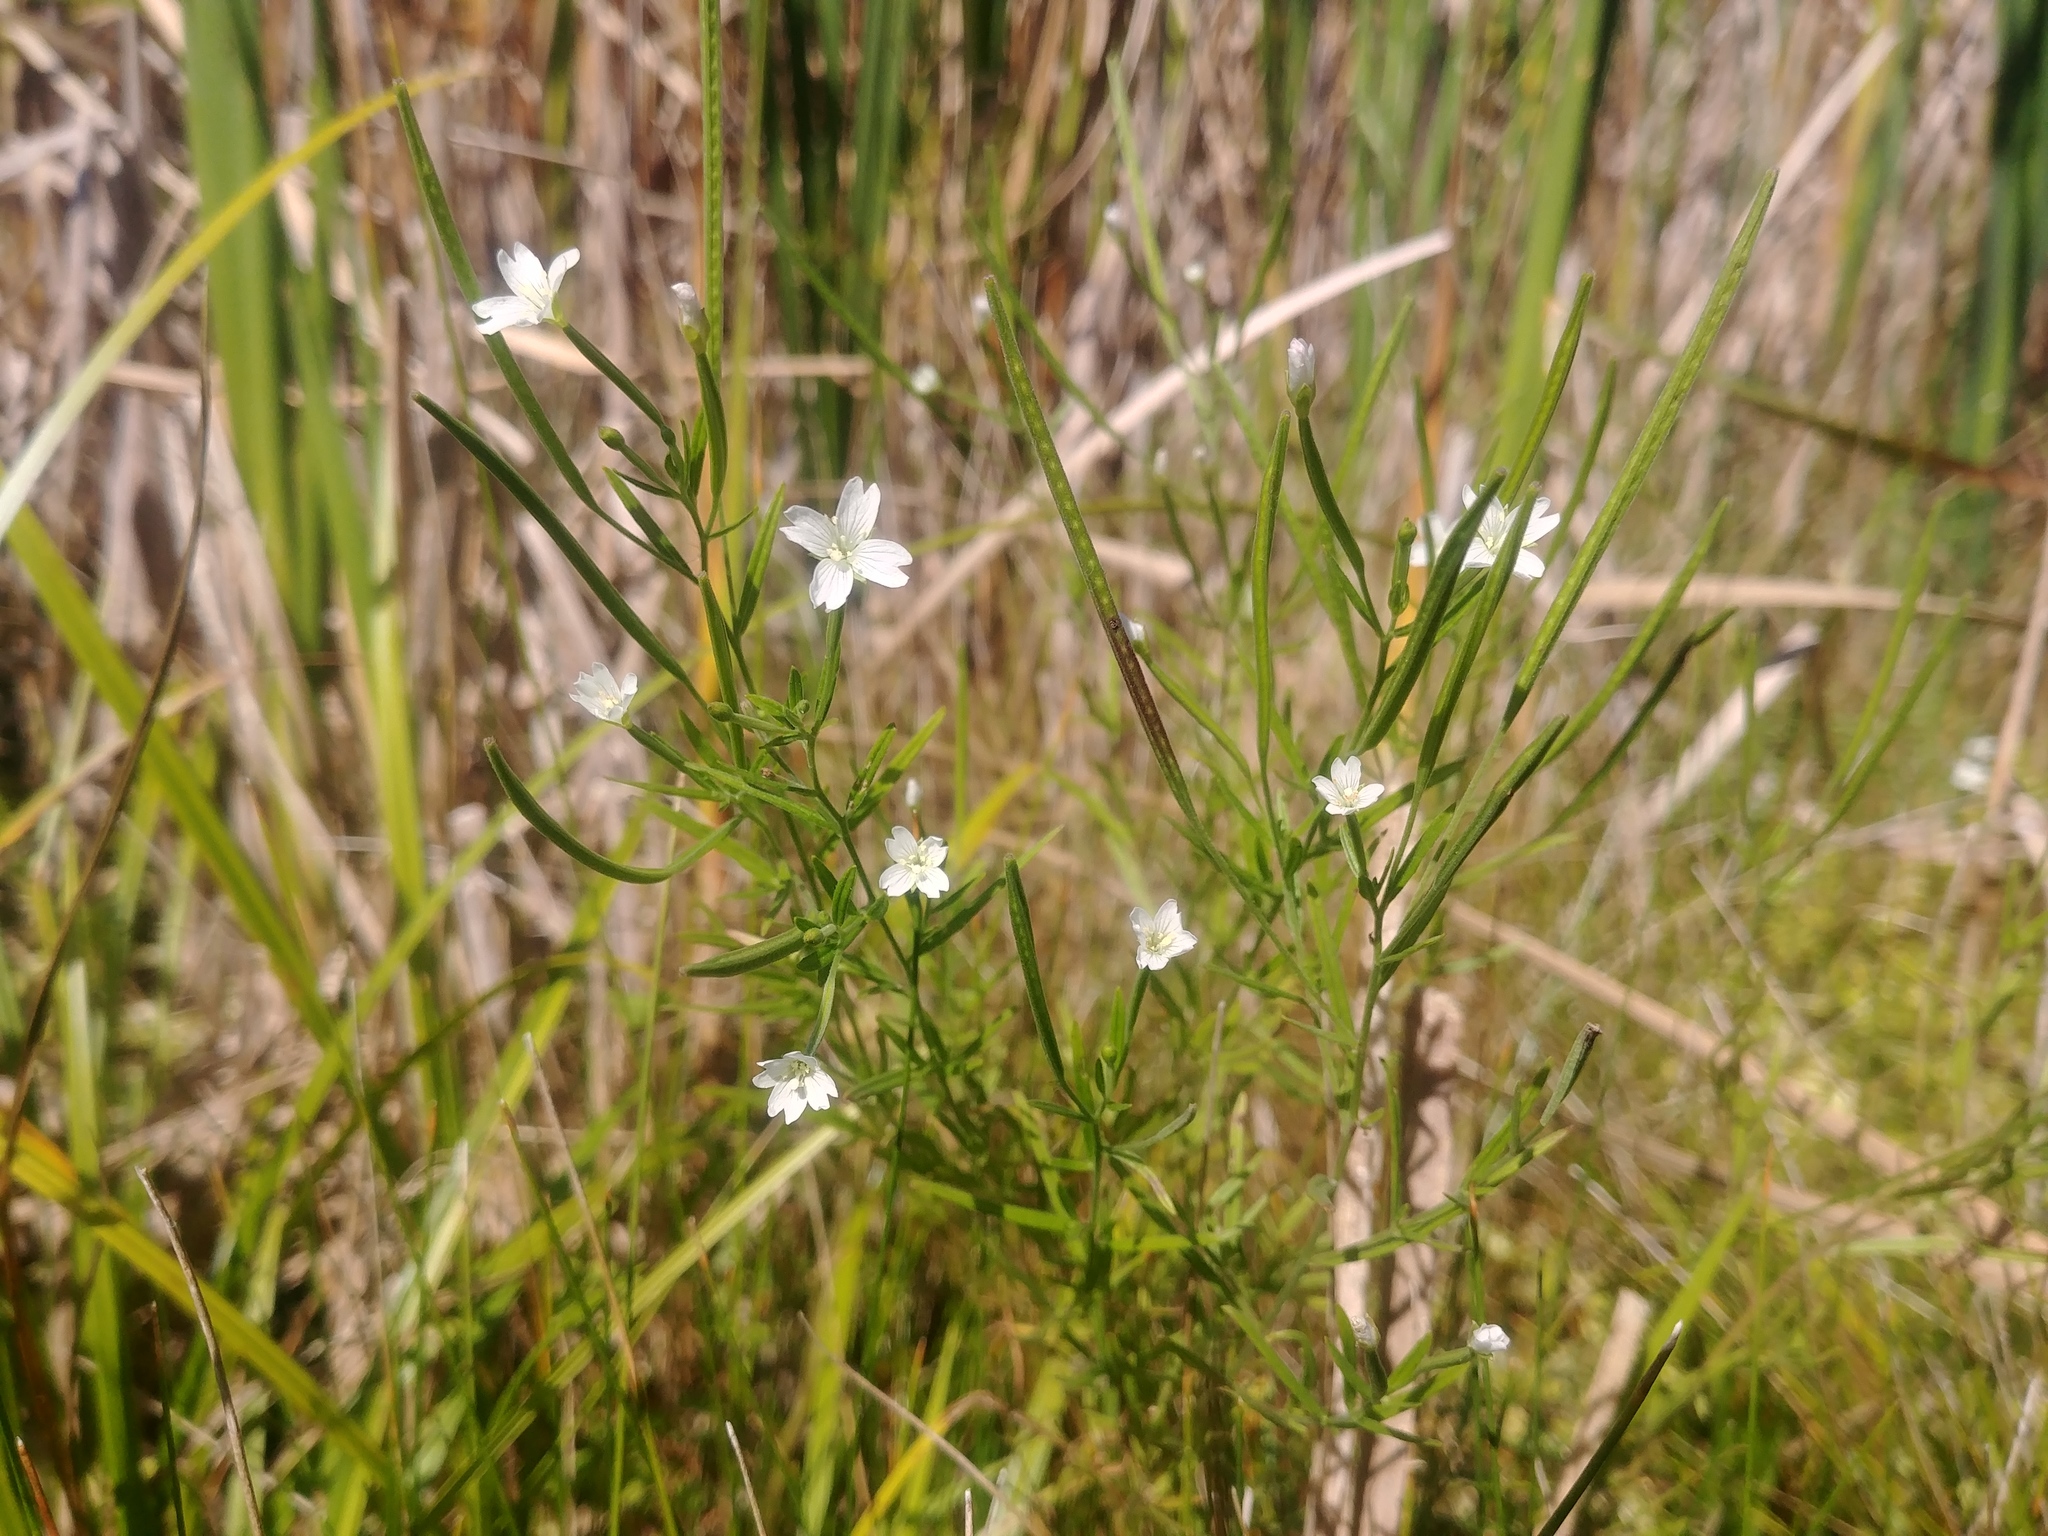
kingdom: Plantae
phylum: Tracheophyta
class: Magnoliopsida
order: Myrtales
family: Onagraceae
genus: Epilobium
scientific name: Epilobium leptophyllum
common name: Bog willowherb
